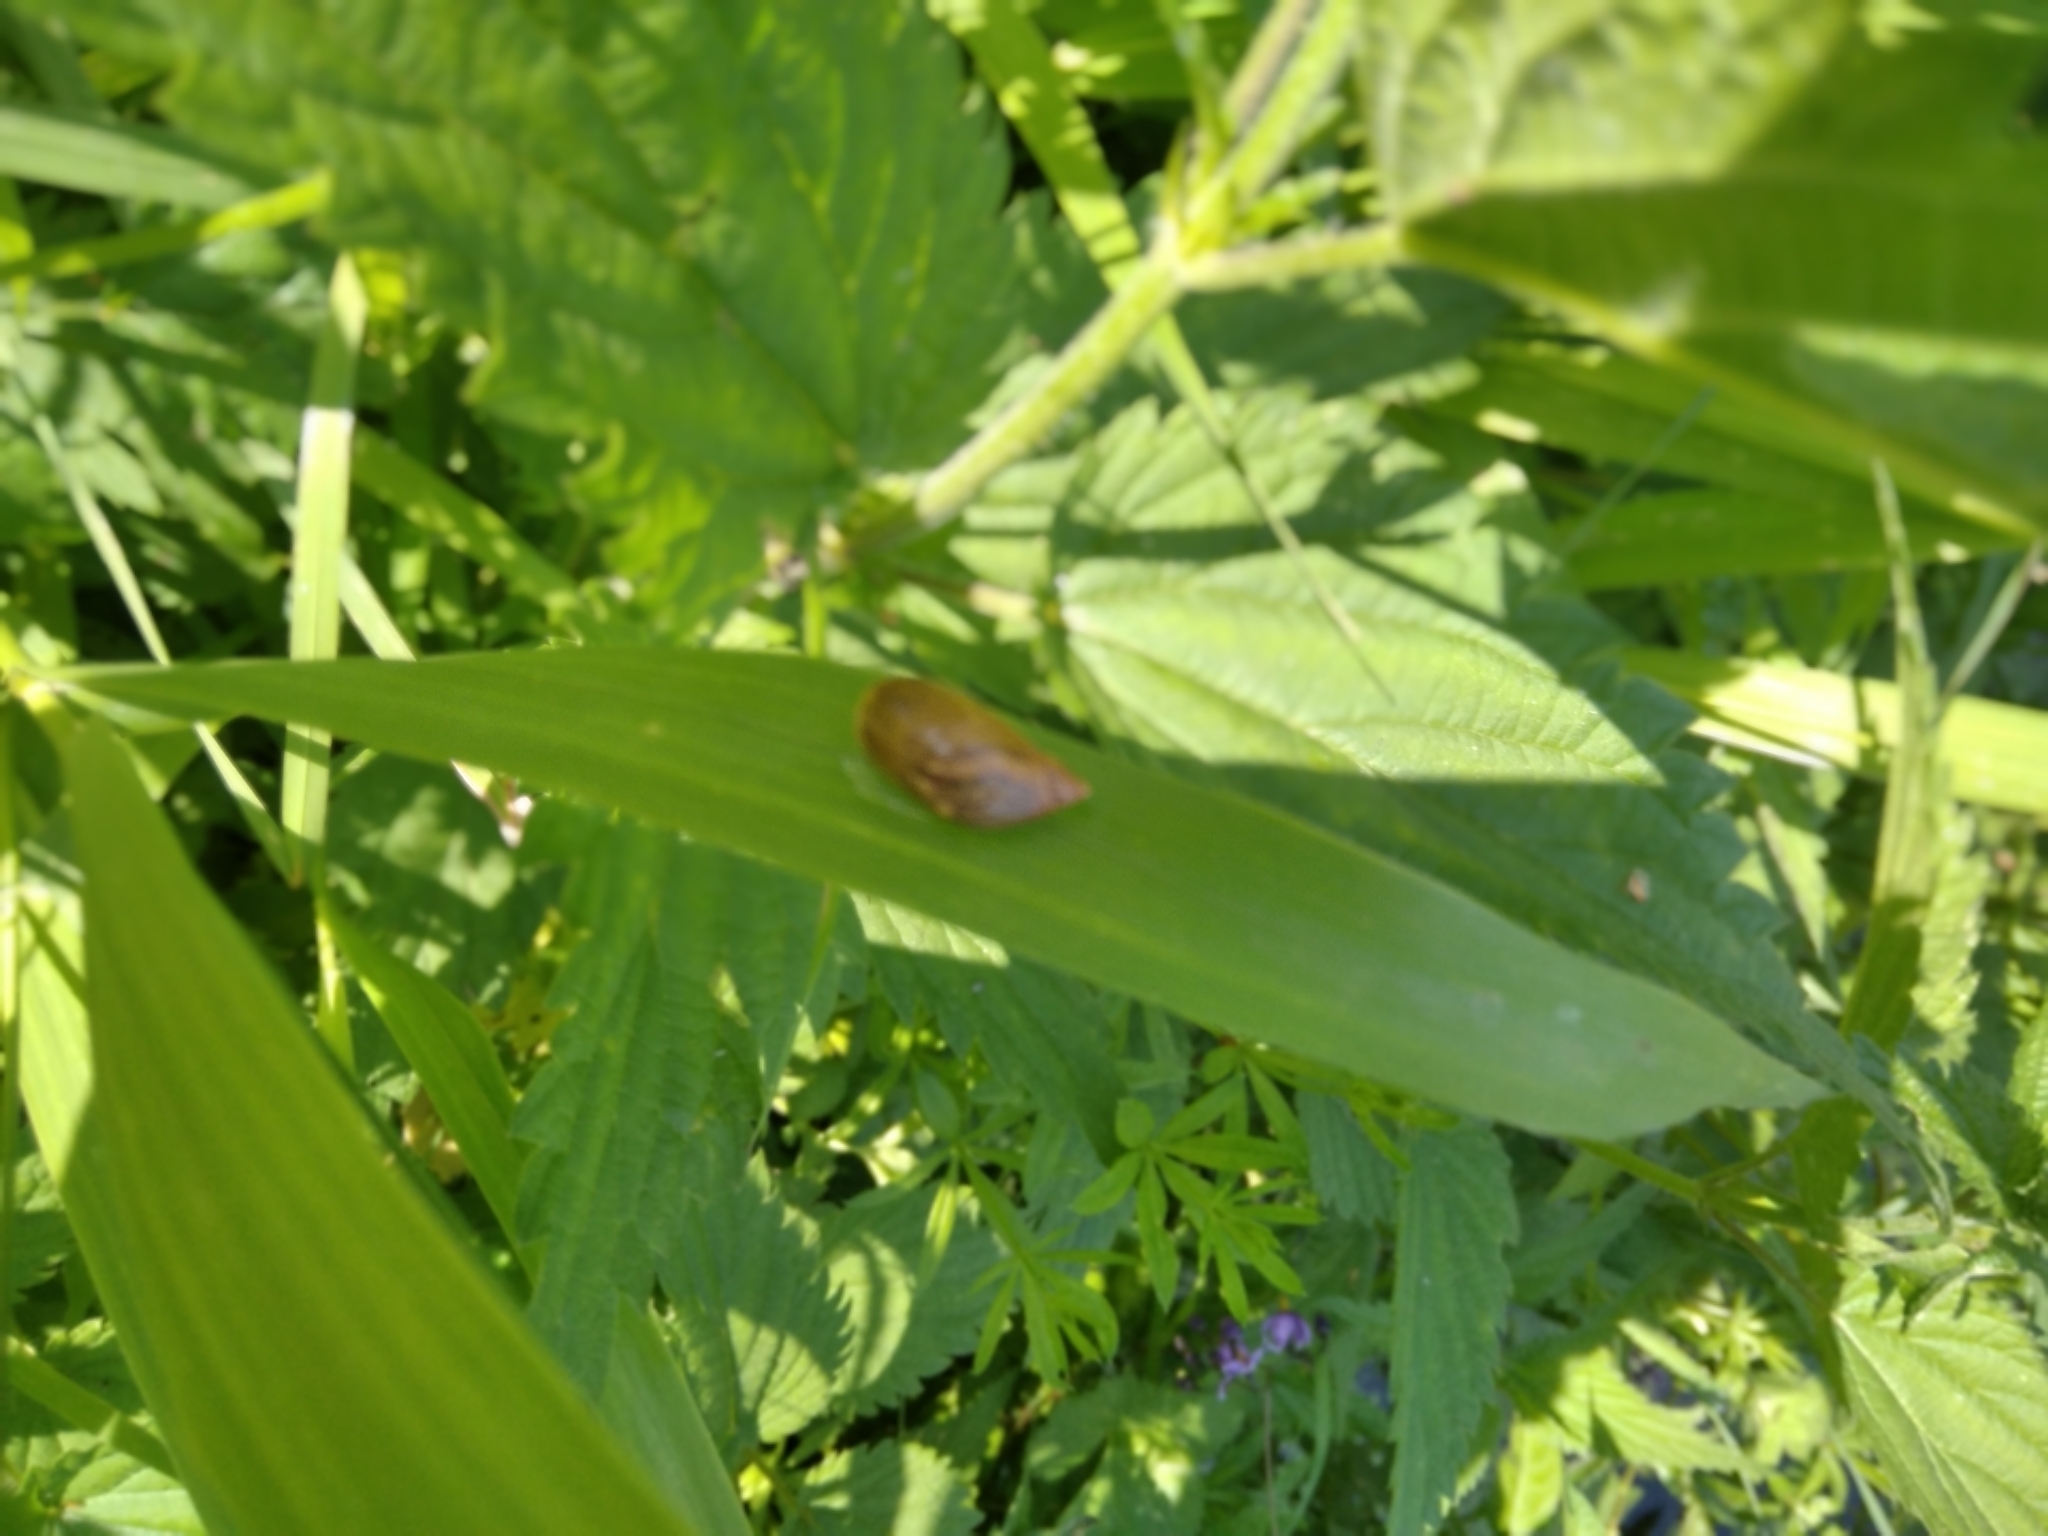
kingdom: Animalia
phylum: Mollusca
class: Gastropoda
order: Stylommatophora
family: Succineidae
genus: Succinea
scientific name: Succinea putris
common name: European ambersnail
